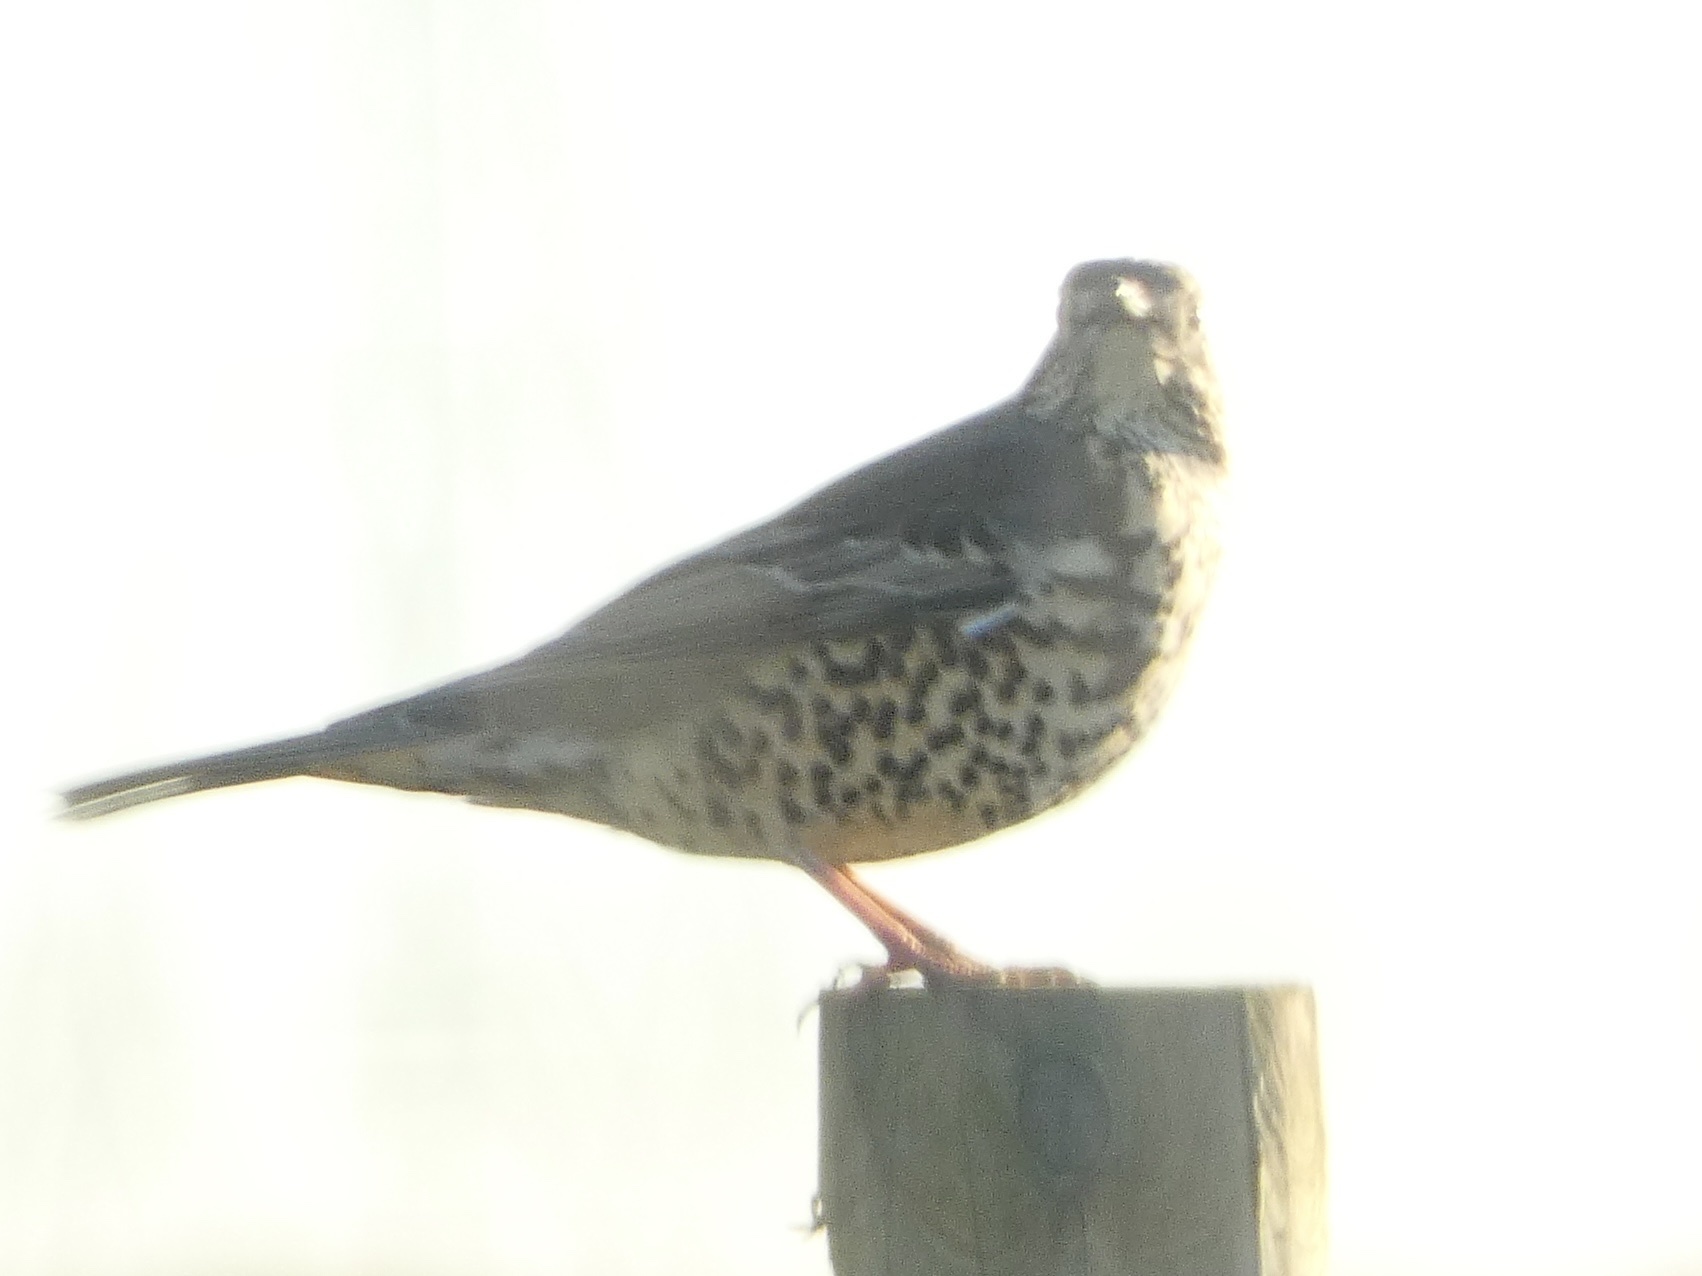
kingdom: Animalia
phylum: Chordata
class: Aves
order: Passeriformes
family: Turdidae
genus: Turdus
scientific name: Turdus viscivorus
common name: Mistle thrush
